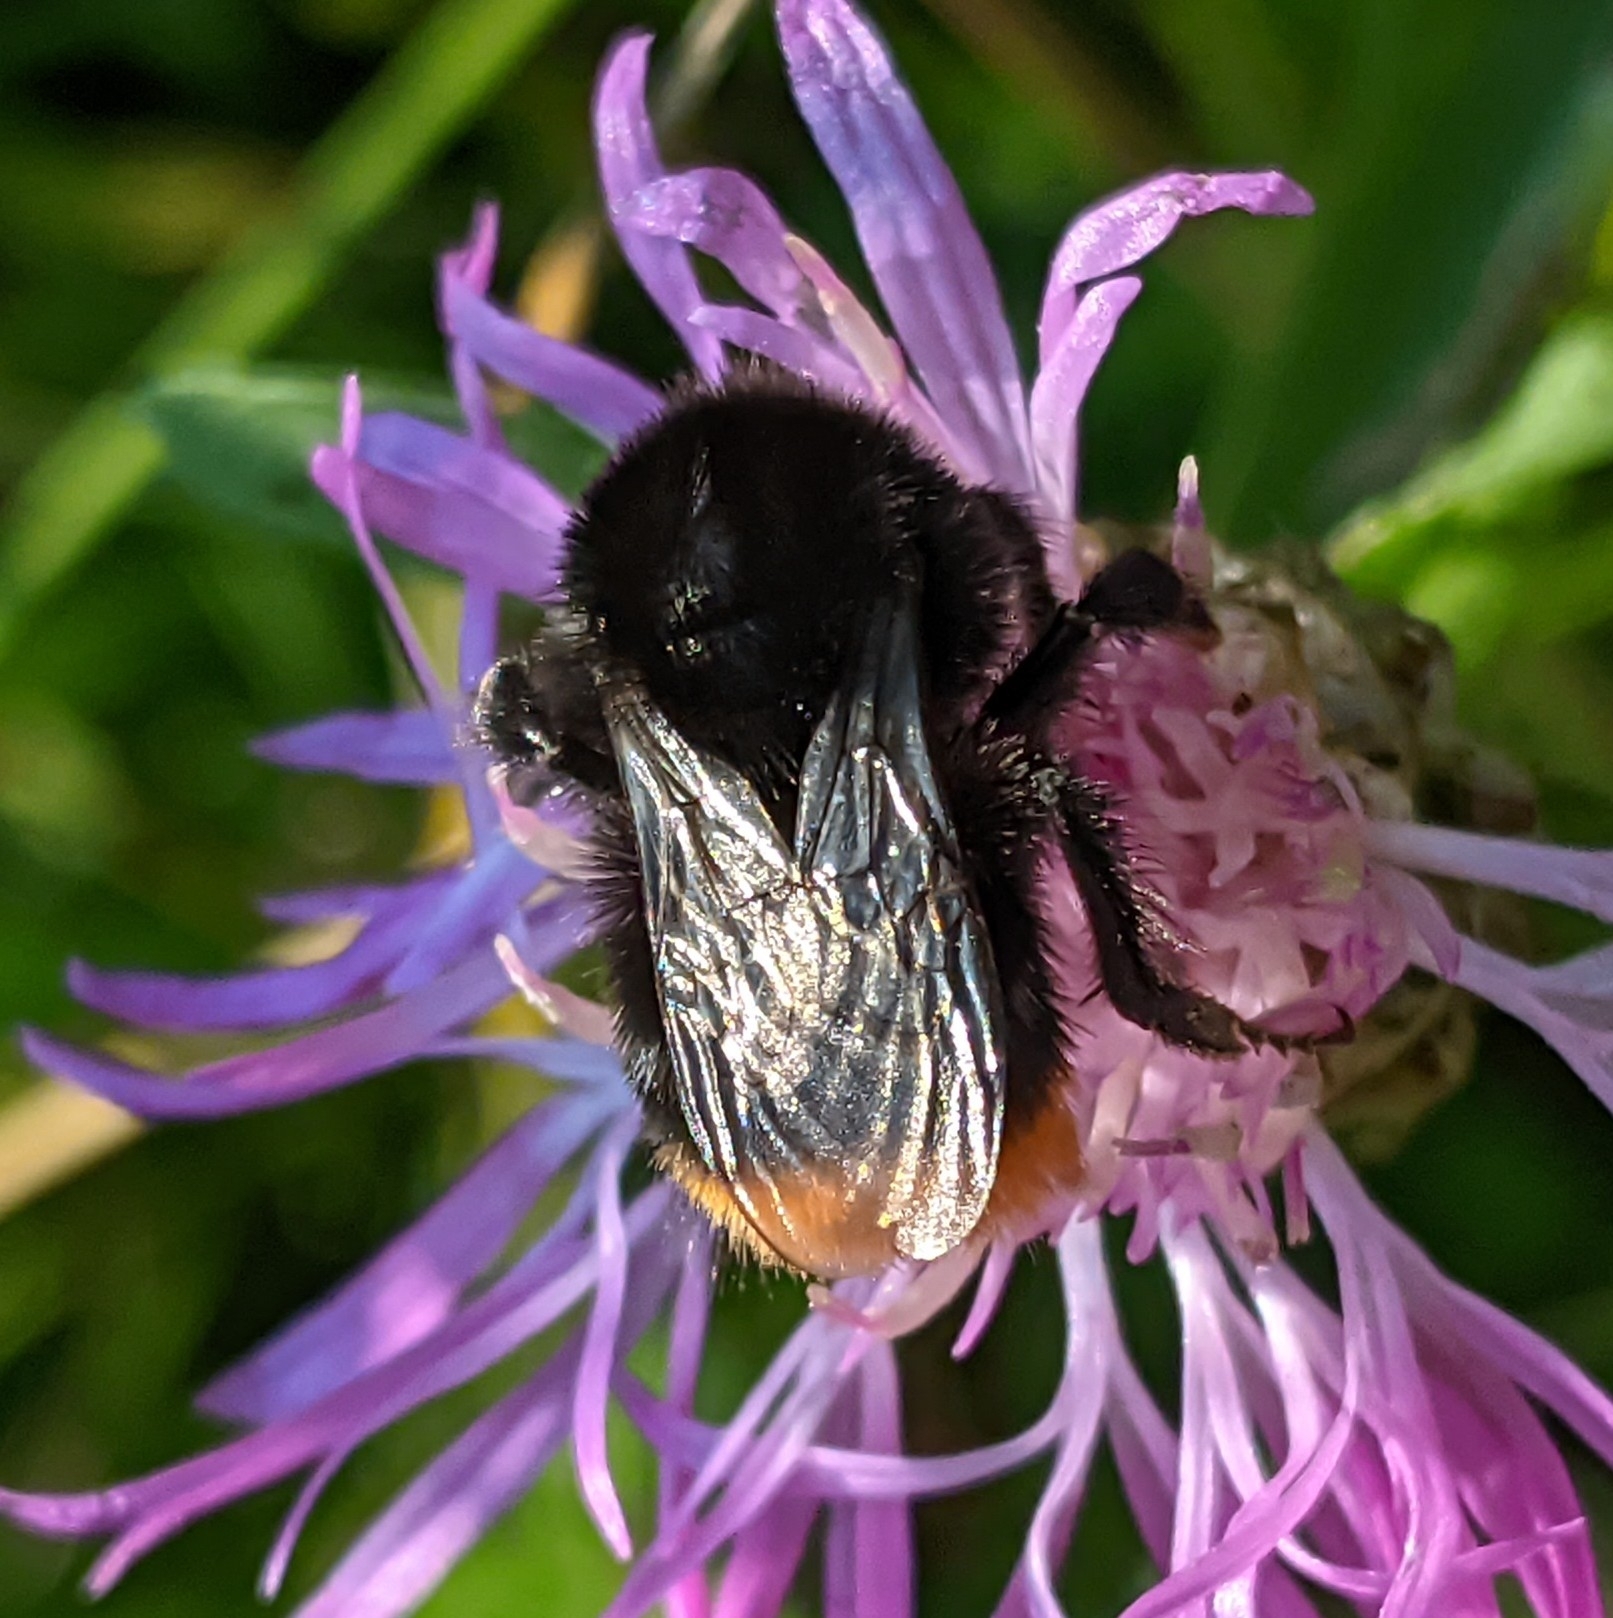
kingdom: Animalia
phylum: Arthropoda
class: Insecta
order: Hymenoptera
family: Apidae
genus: Bombus
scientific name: Bombus
